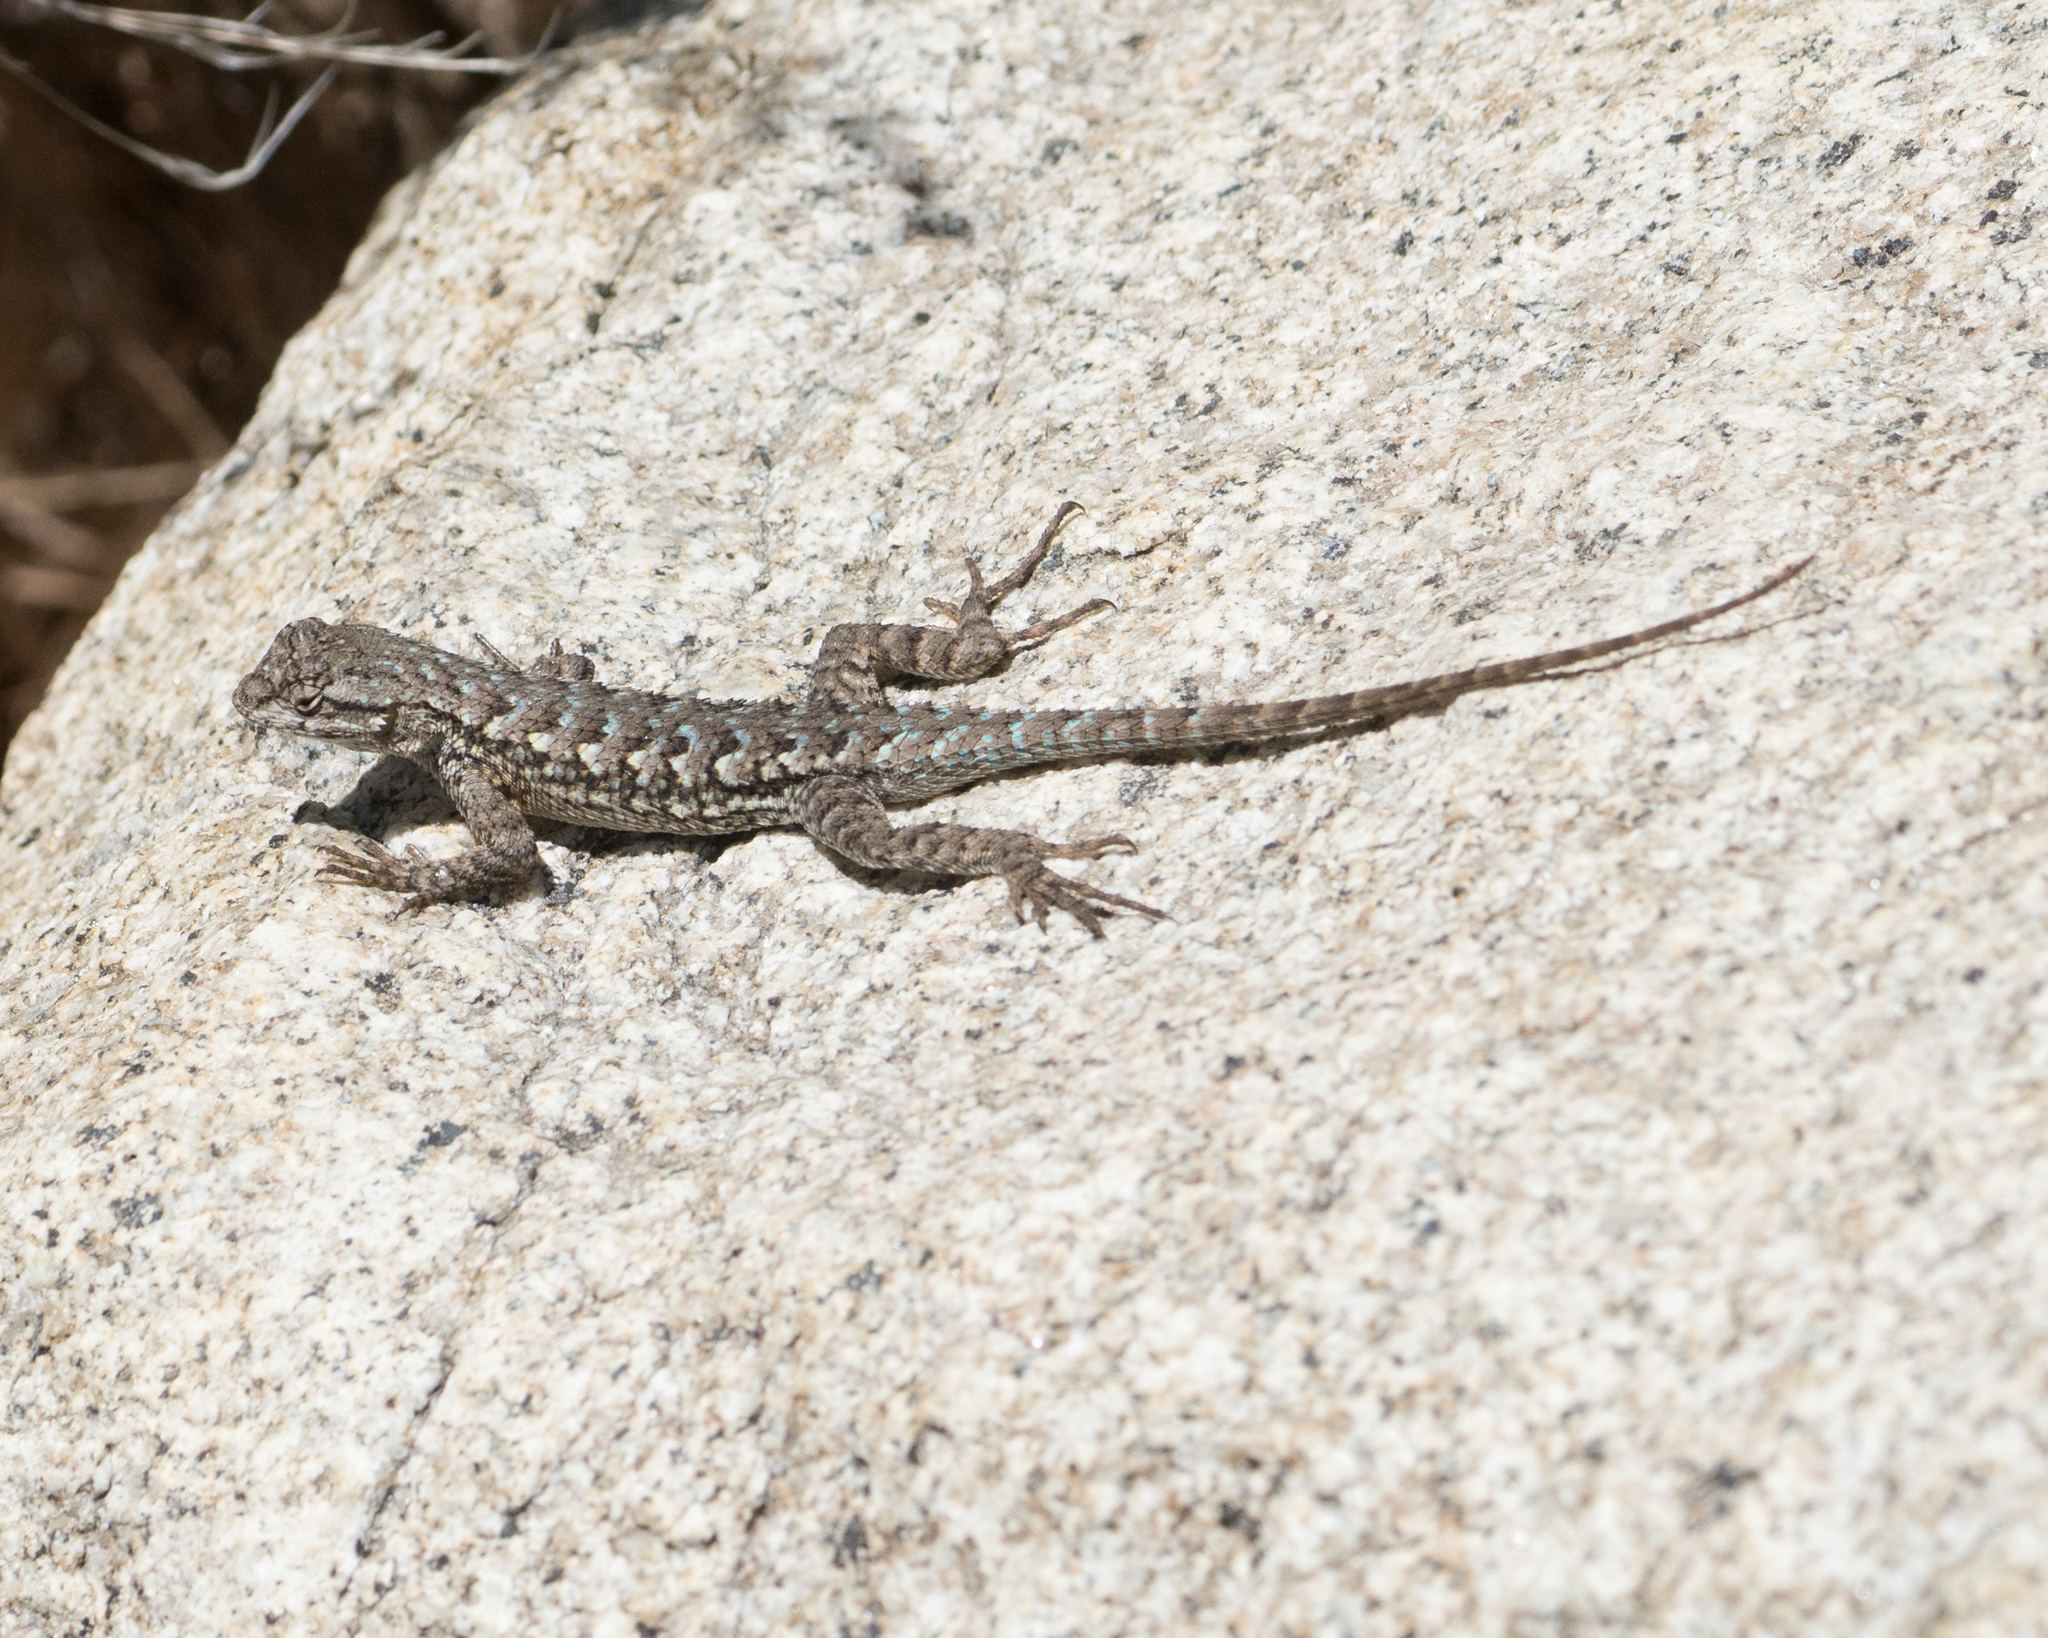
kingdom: Animalia
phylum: Chordata
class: Squamata
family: Phrynosomatidae
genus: Sceloporus
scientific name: Sceloporus occidentalis
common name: Western fence lizard
